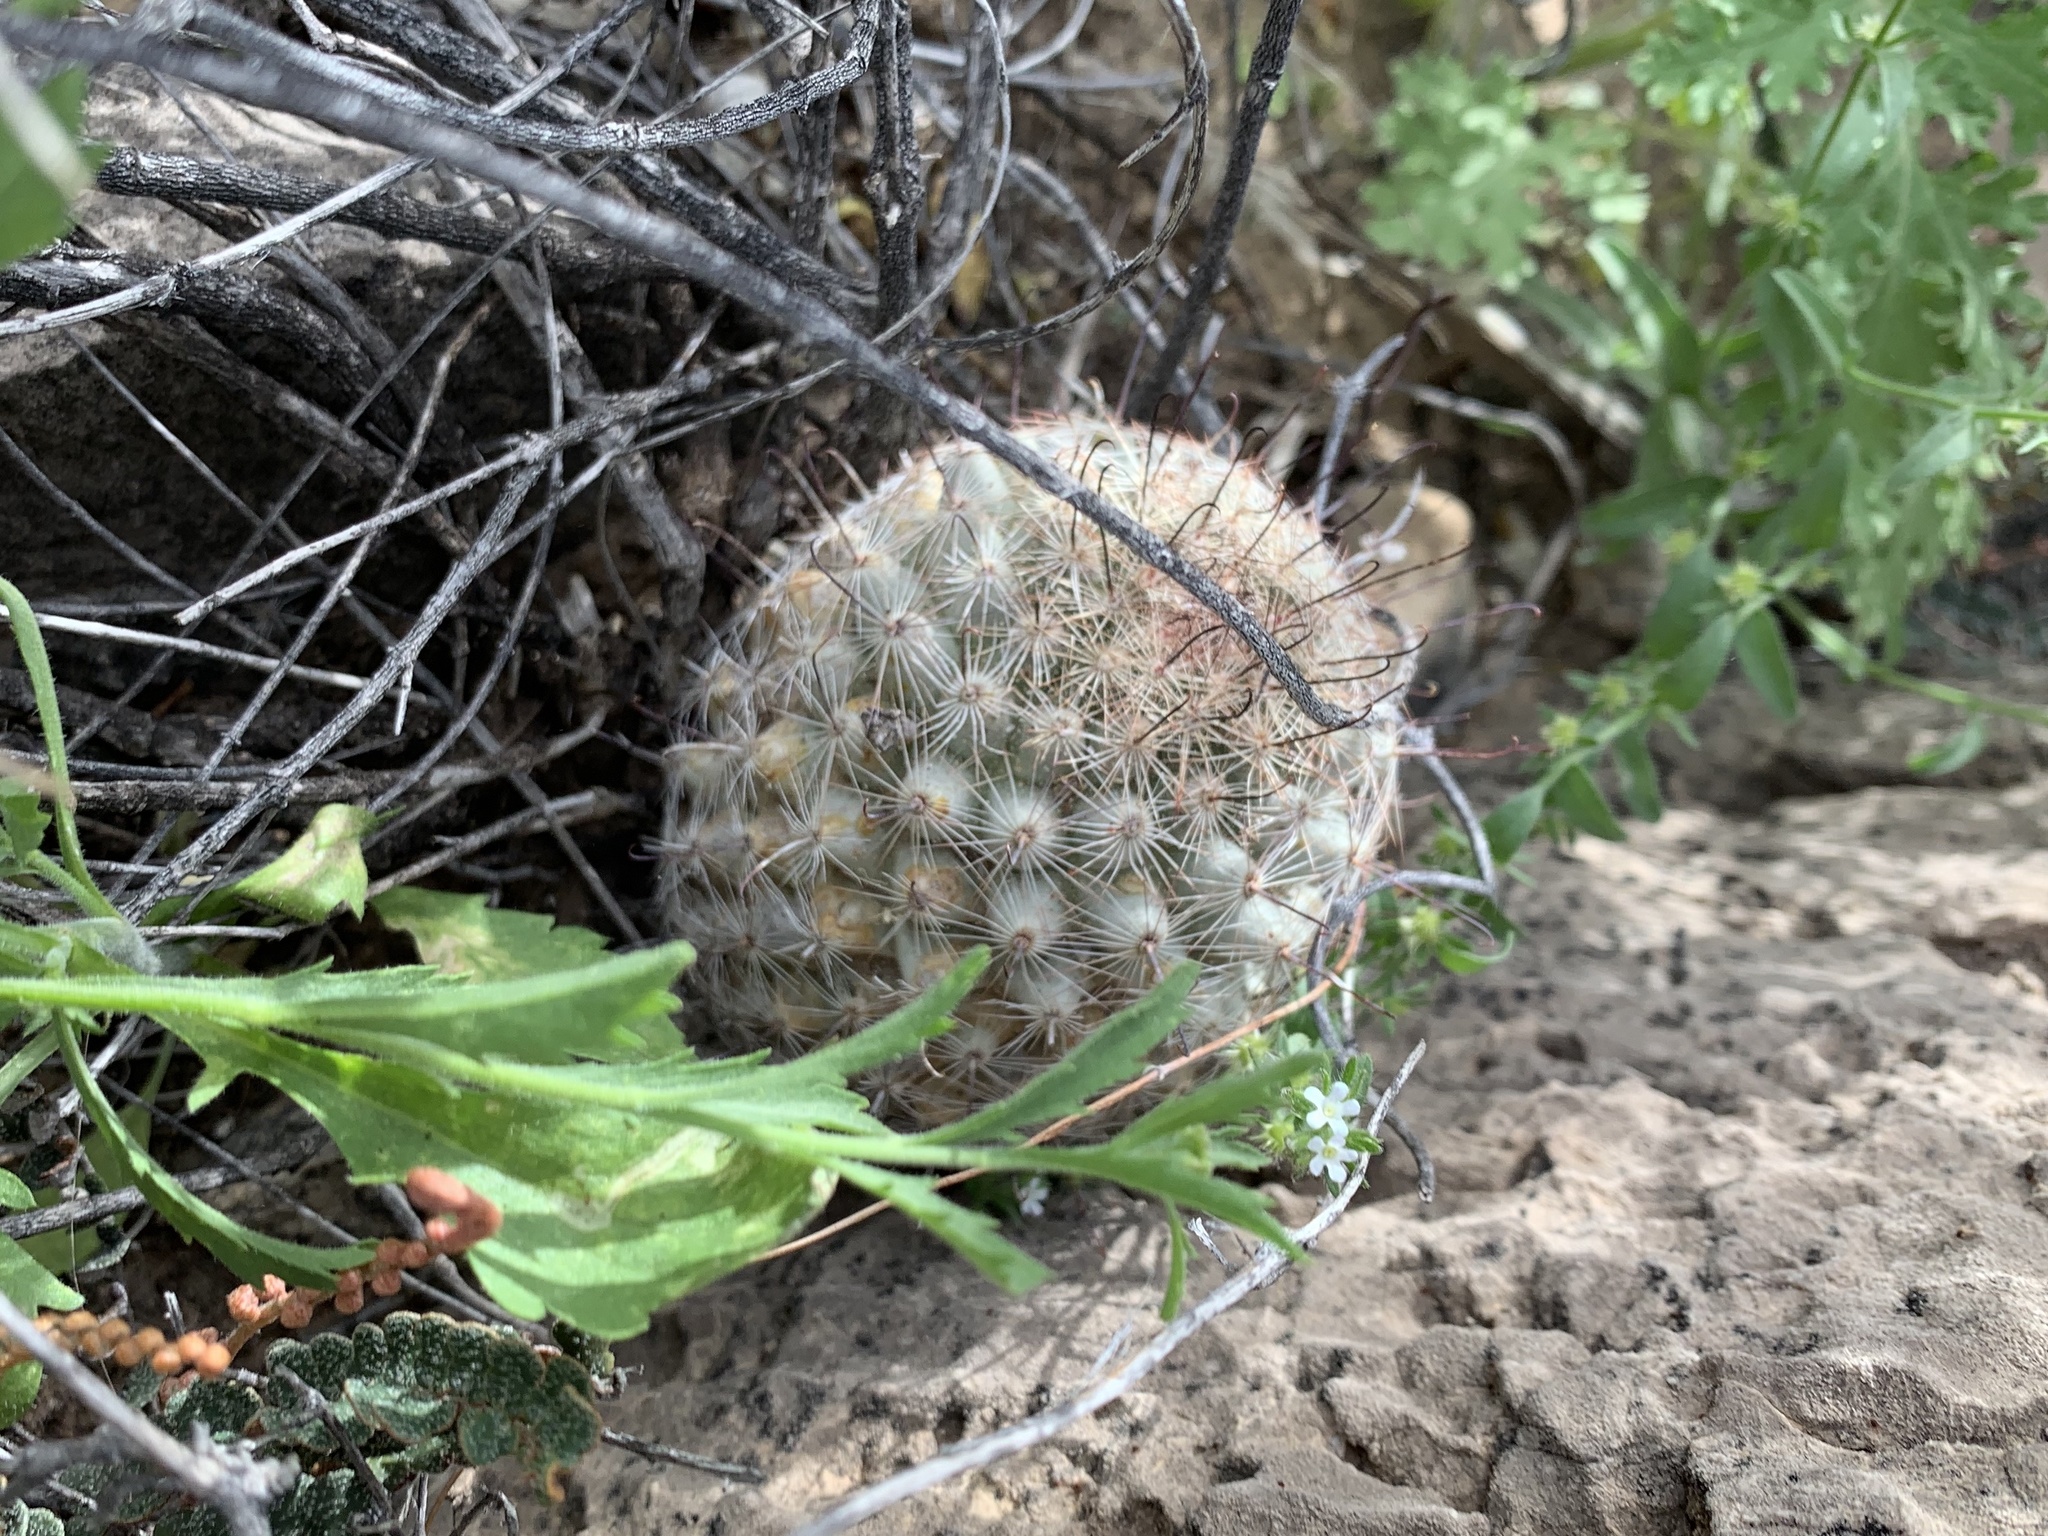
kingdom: Plantae
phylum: Tracheophyta
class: Magnoliopsida
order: Caryophyllales
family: Cactaceae
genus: Cochemiea
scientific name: Cochemiea grahamii
